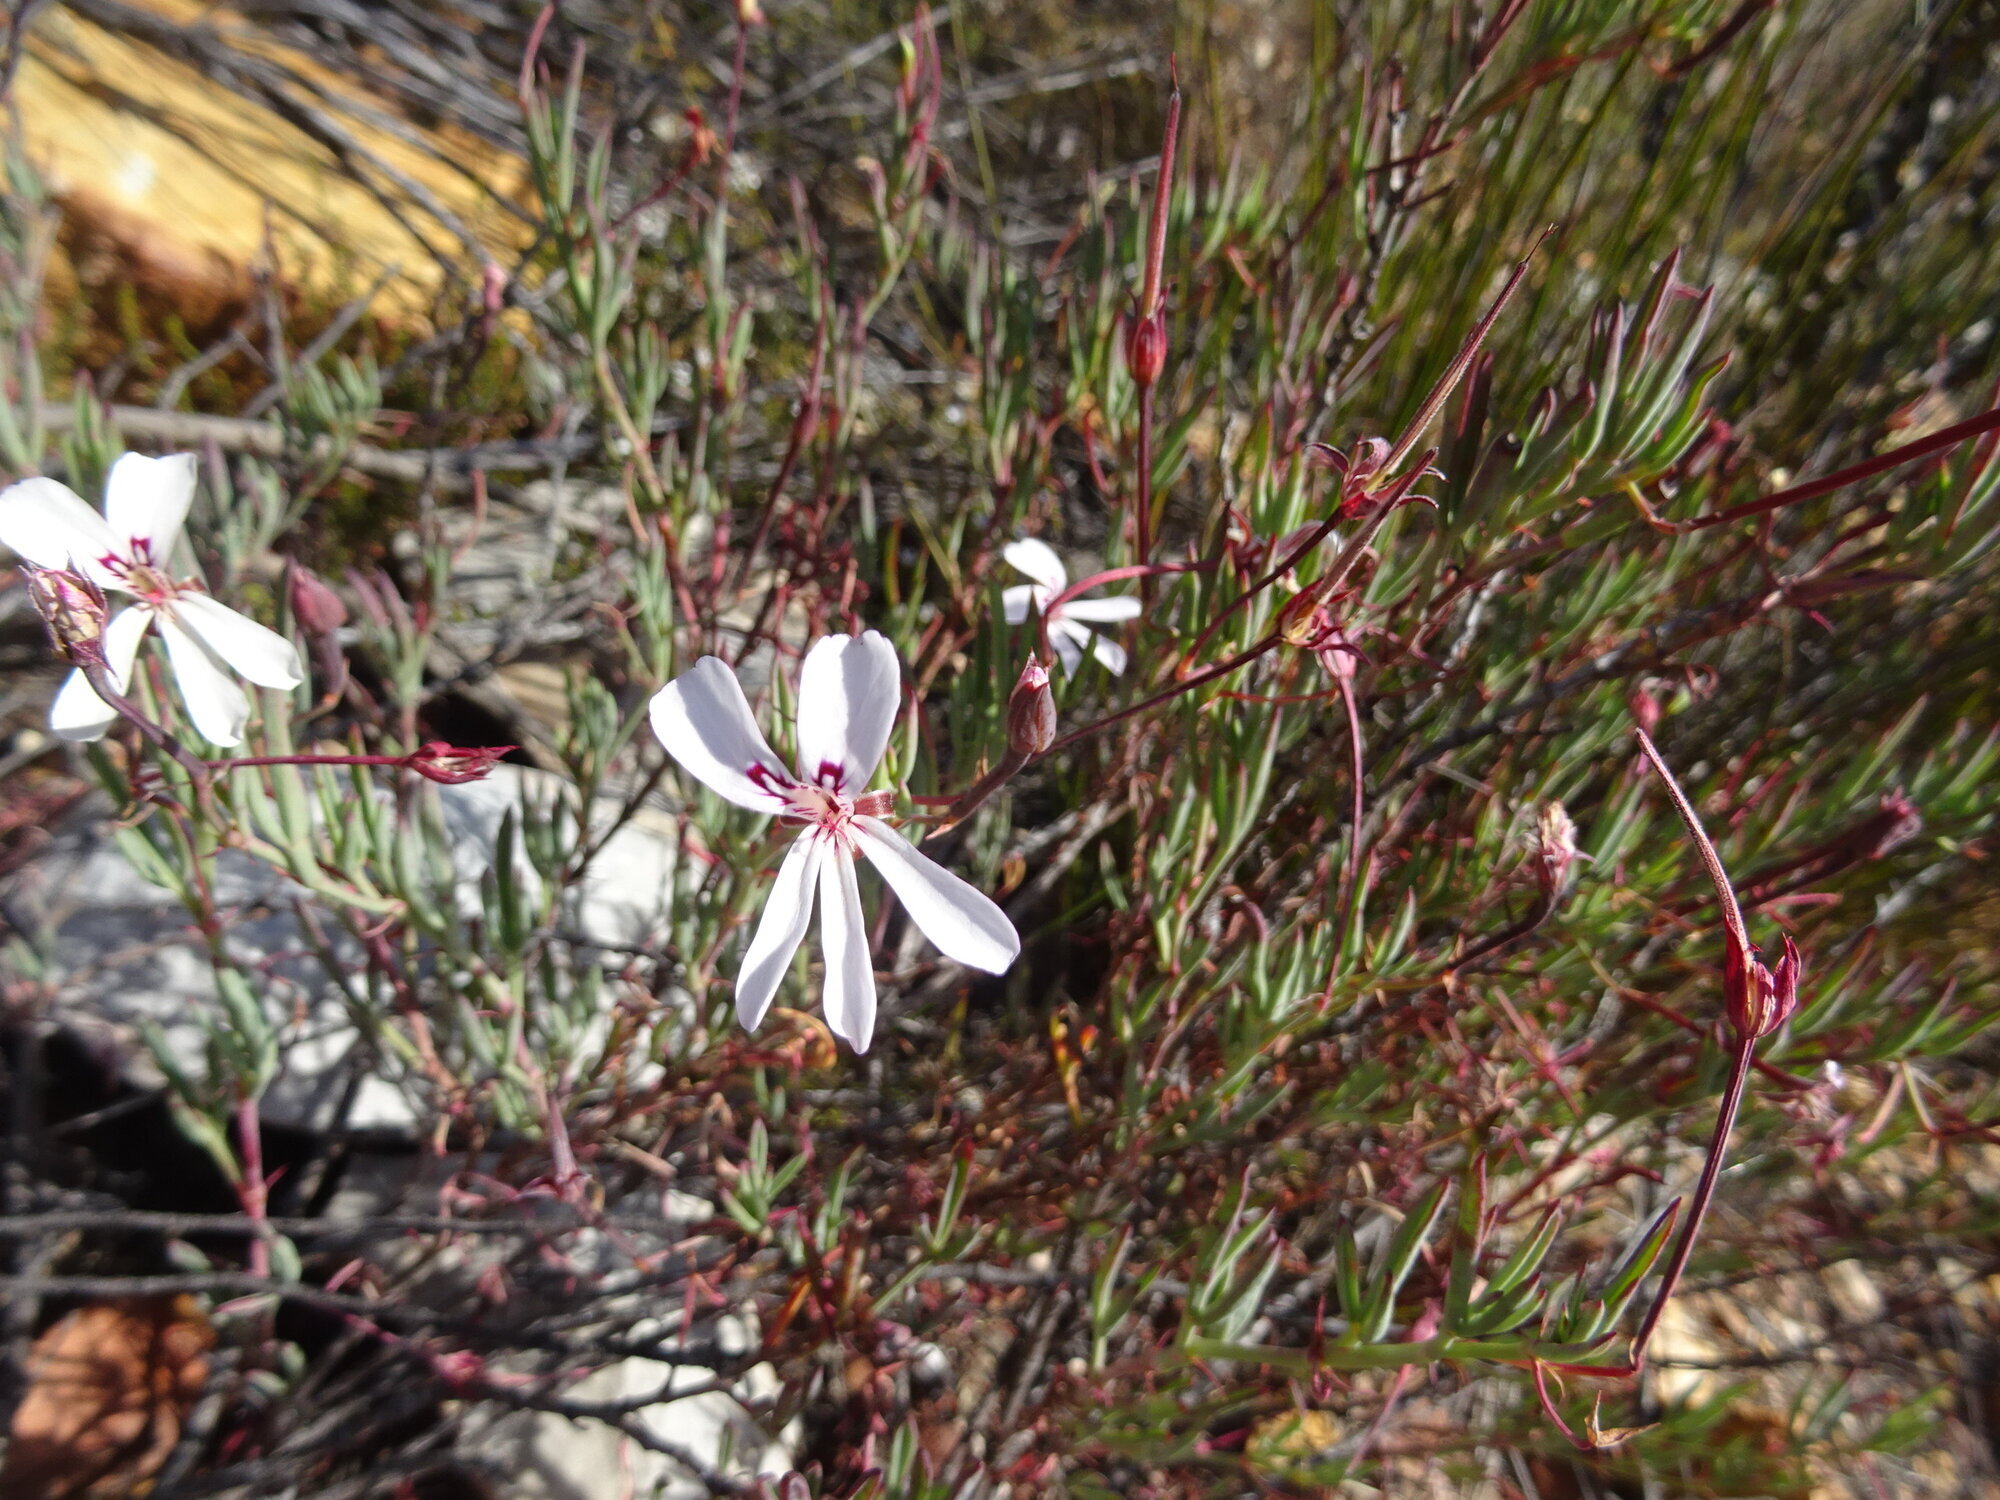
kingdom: Plantae
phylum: Tracheophyta
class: Magnoliopsida
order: Geraniales
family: Geraniaceae
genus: Pelargonium
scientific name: Pelargonium laevigatum
